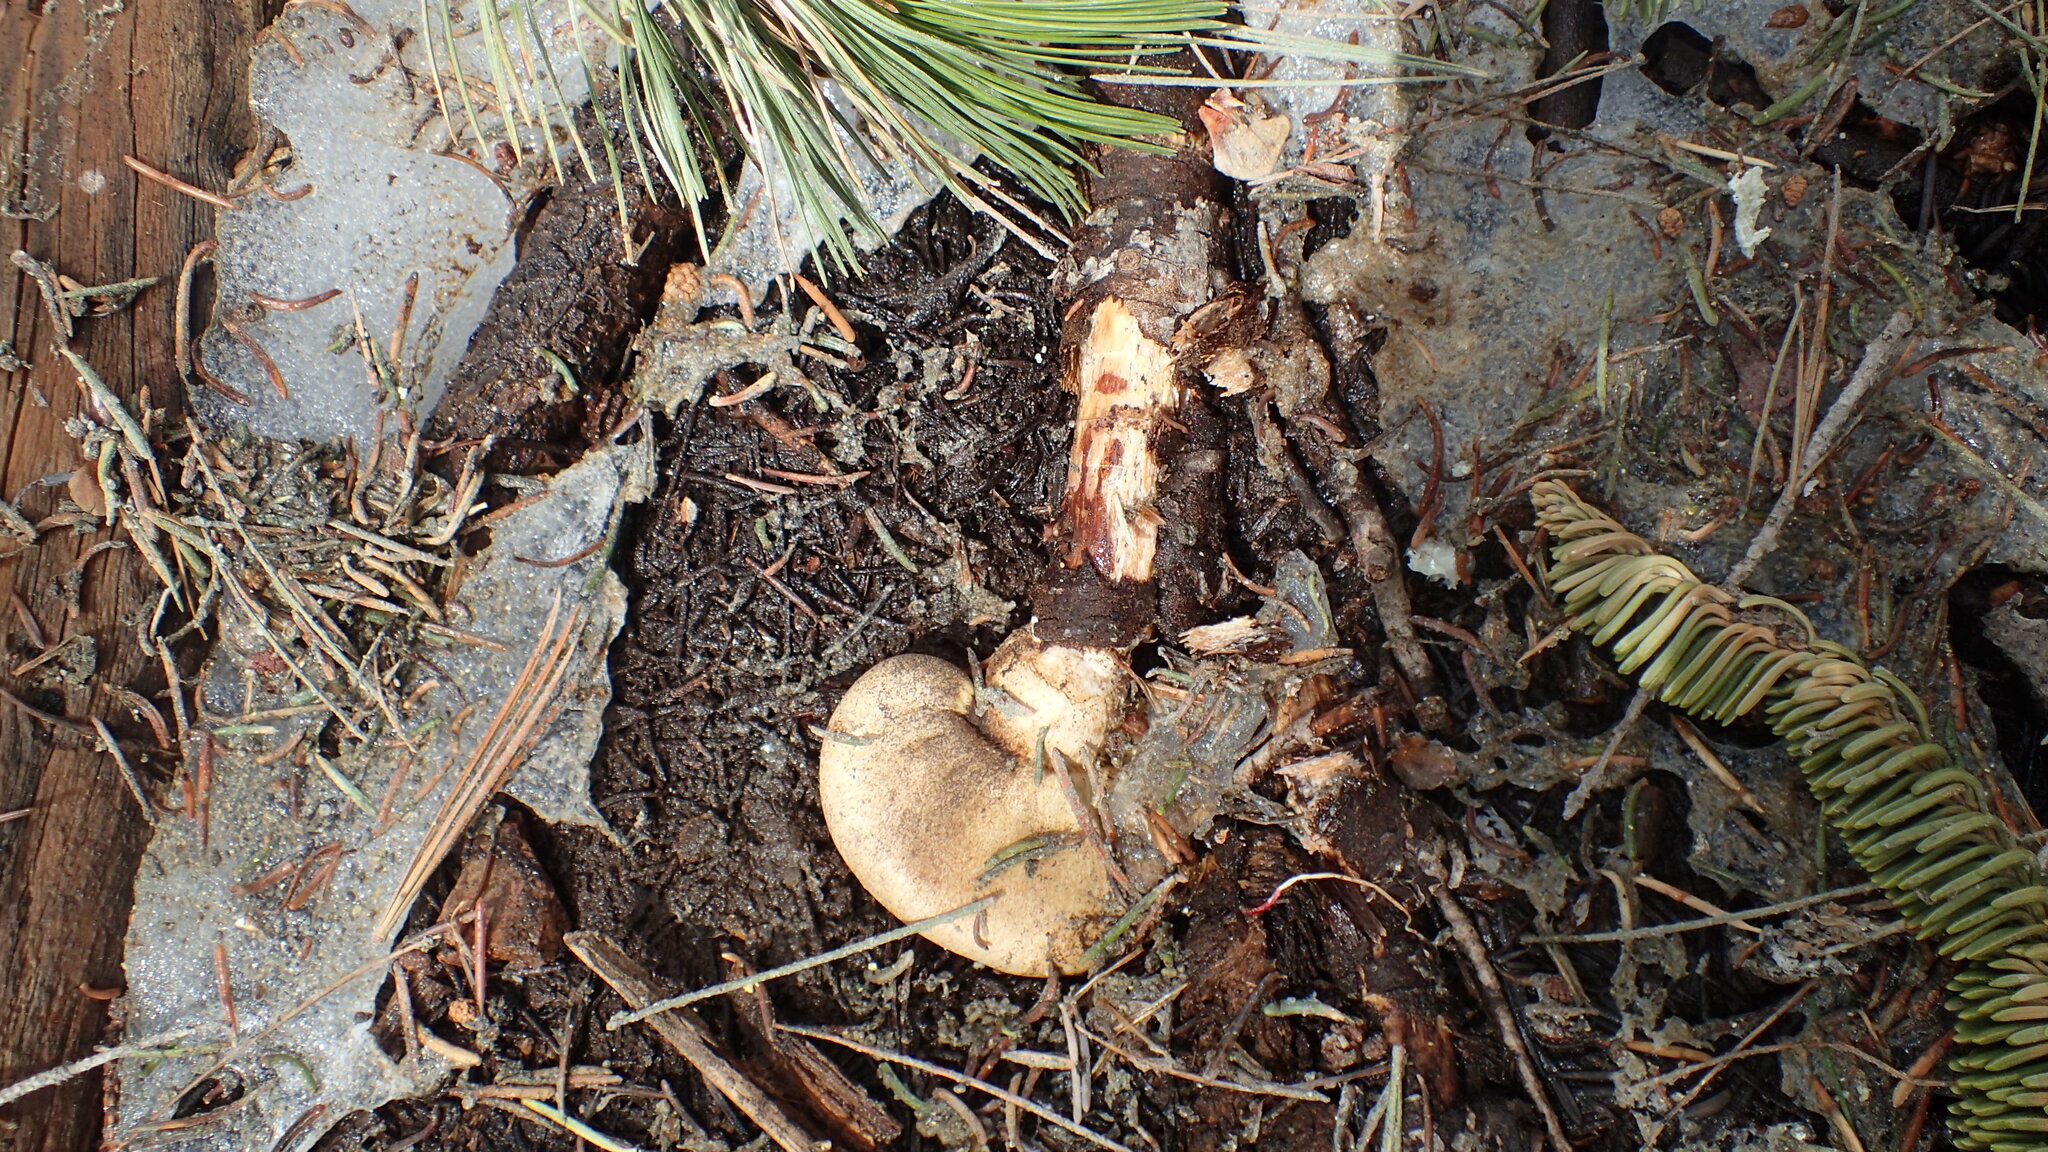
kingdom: Fungi
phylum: Basidiomycota
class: Agaricomycetes
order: Agaricales
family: Strophariaceae
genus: Pholiota
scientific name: Pholiota nubigena
